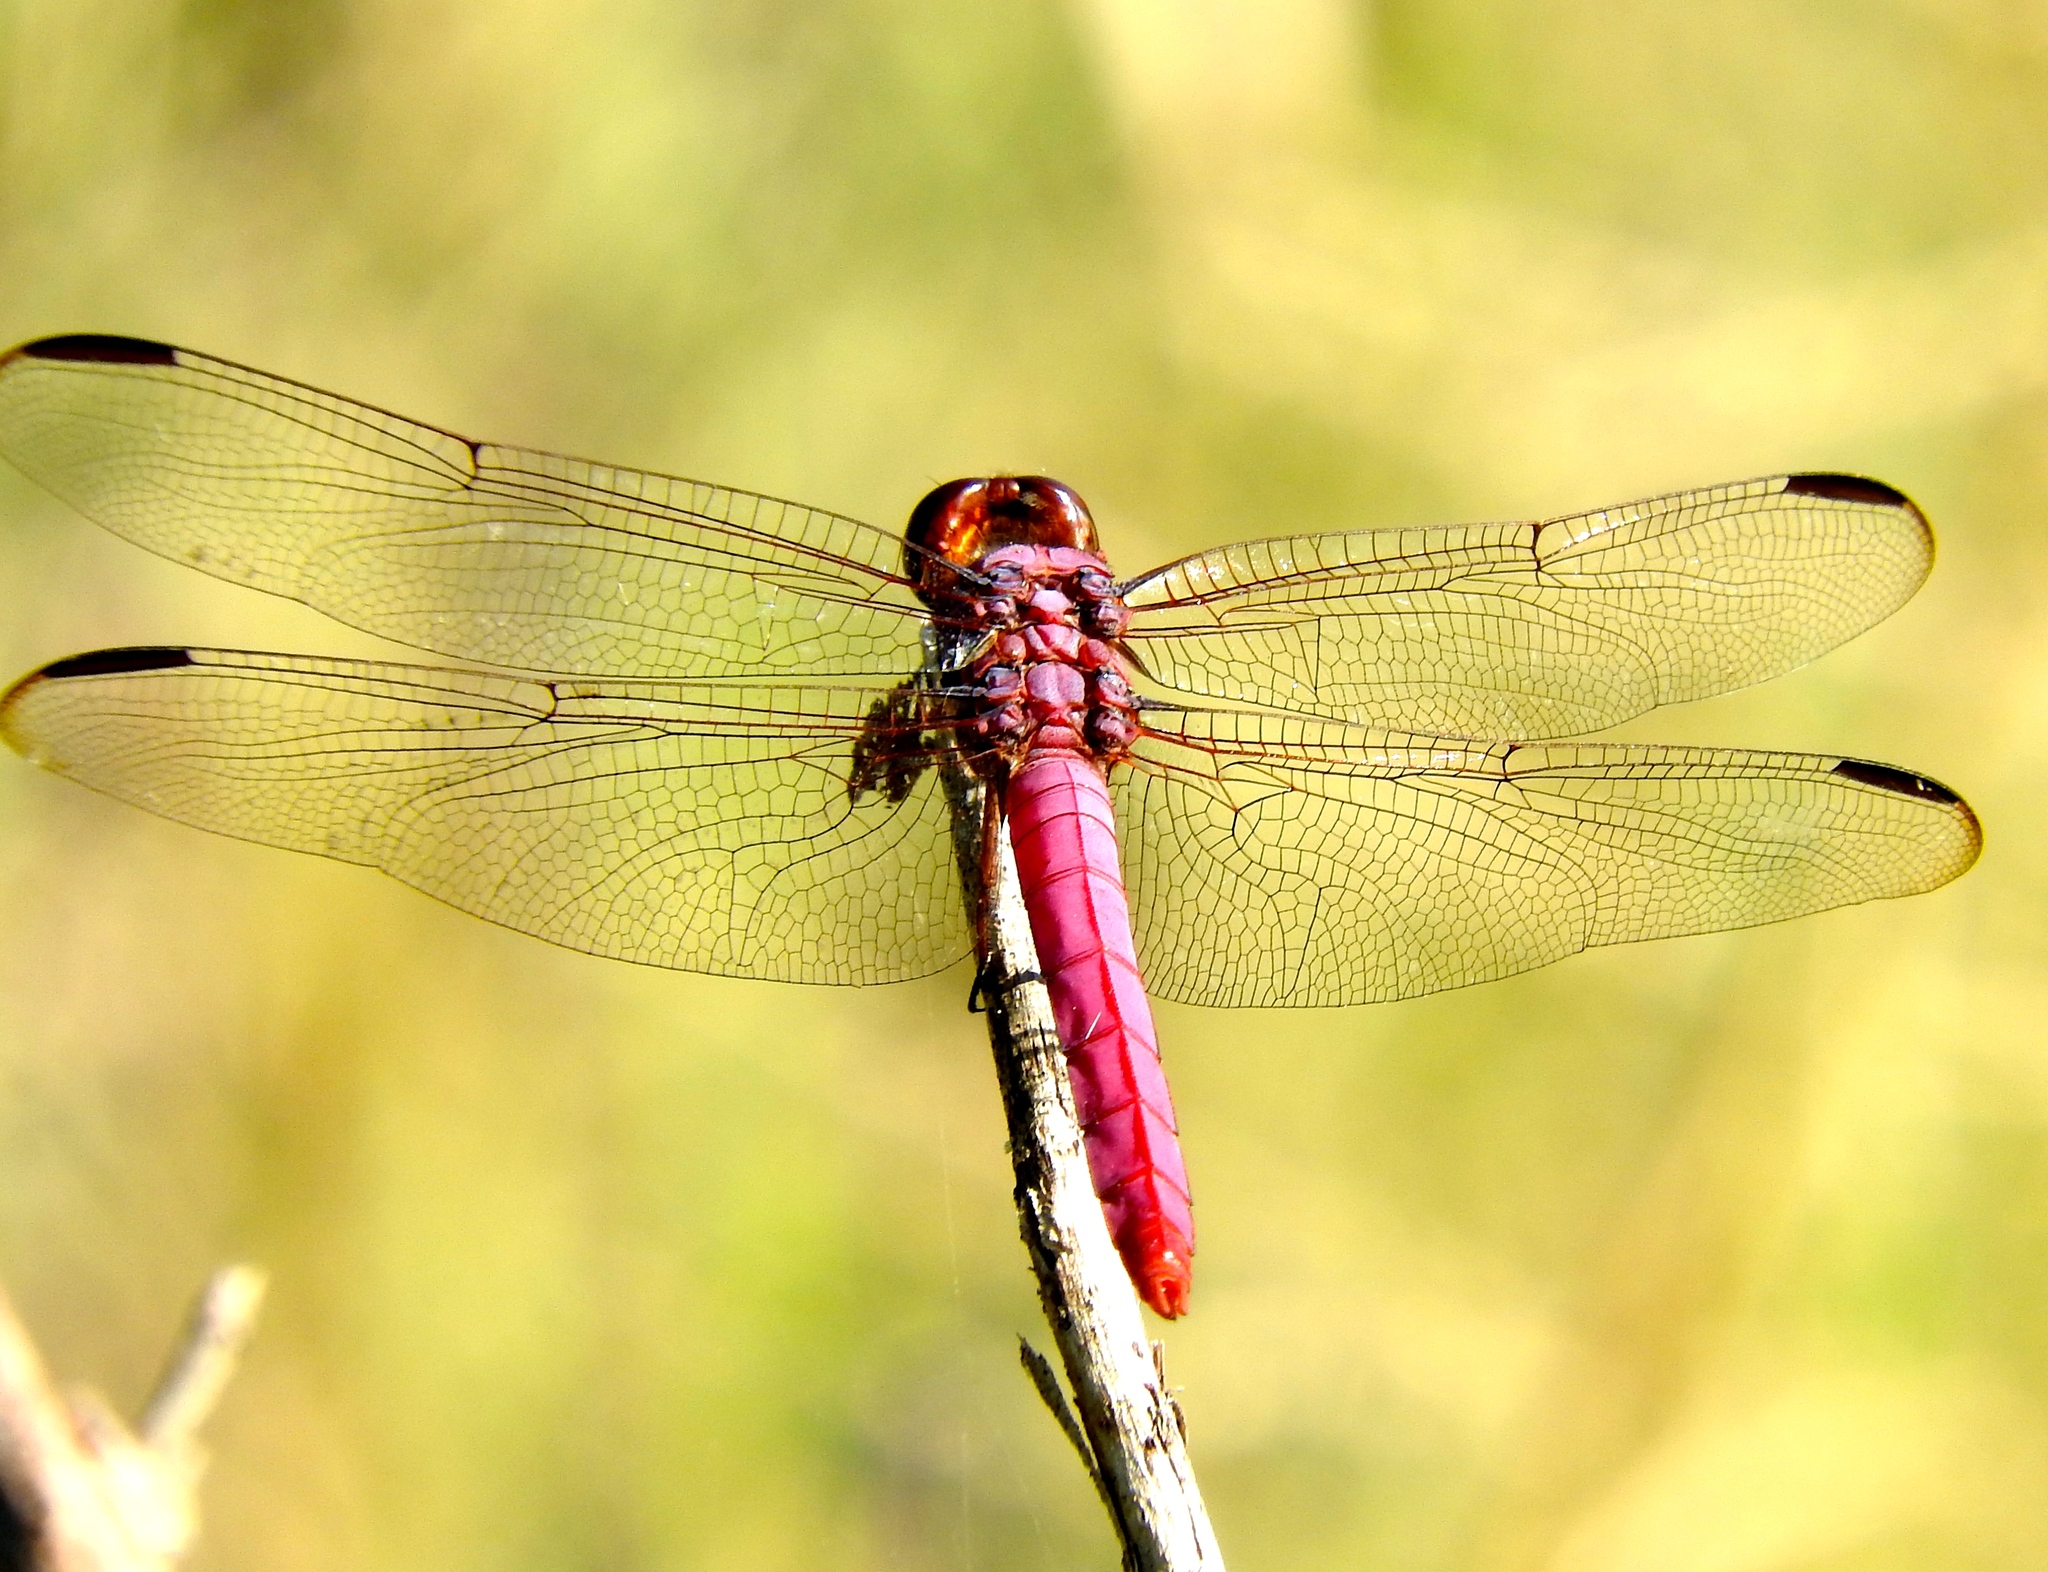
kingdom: Animalia
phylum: Arthropoda
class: Insecta
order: Odonata
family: Libellulidae
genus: Orthemis
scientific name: Orthemis ferruginea
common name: Roseate skimmer
